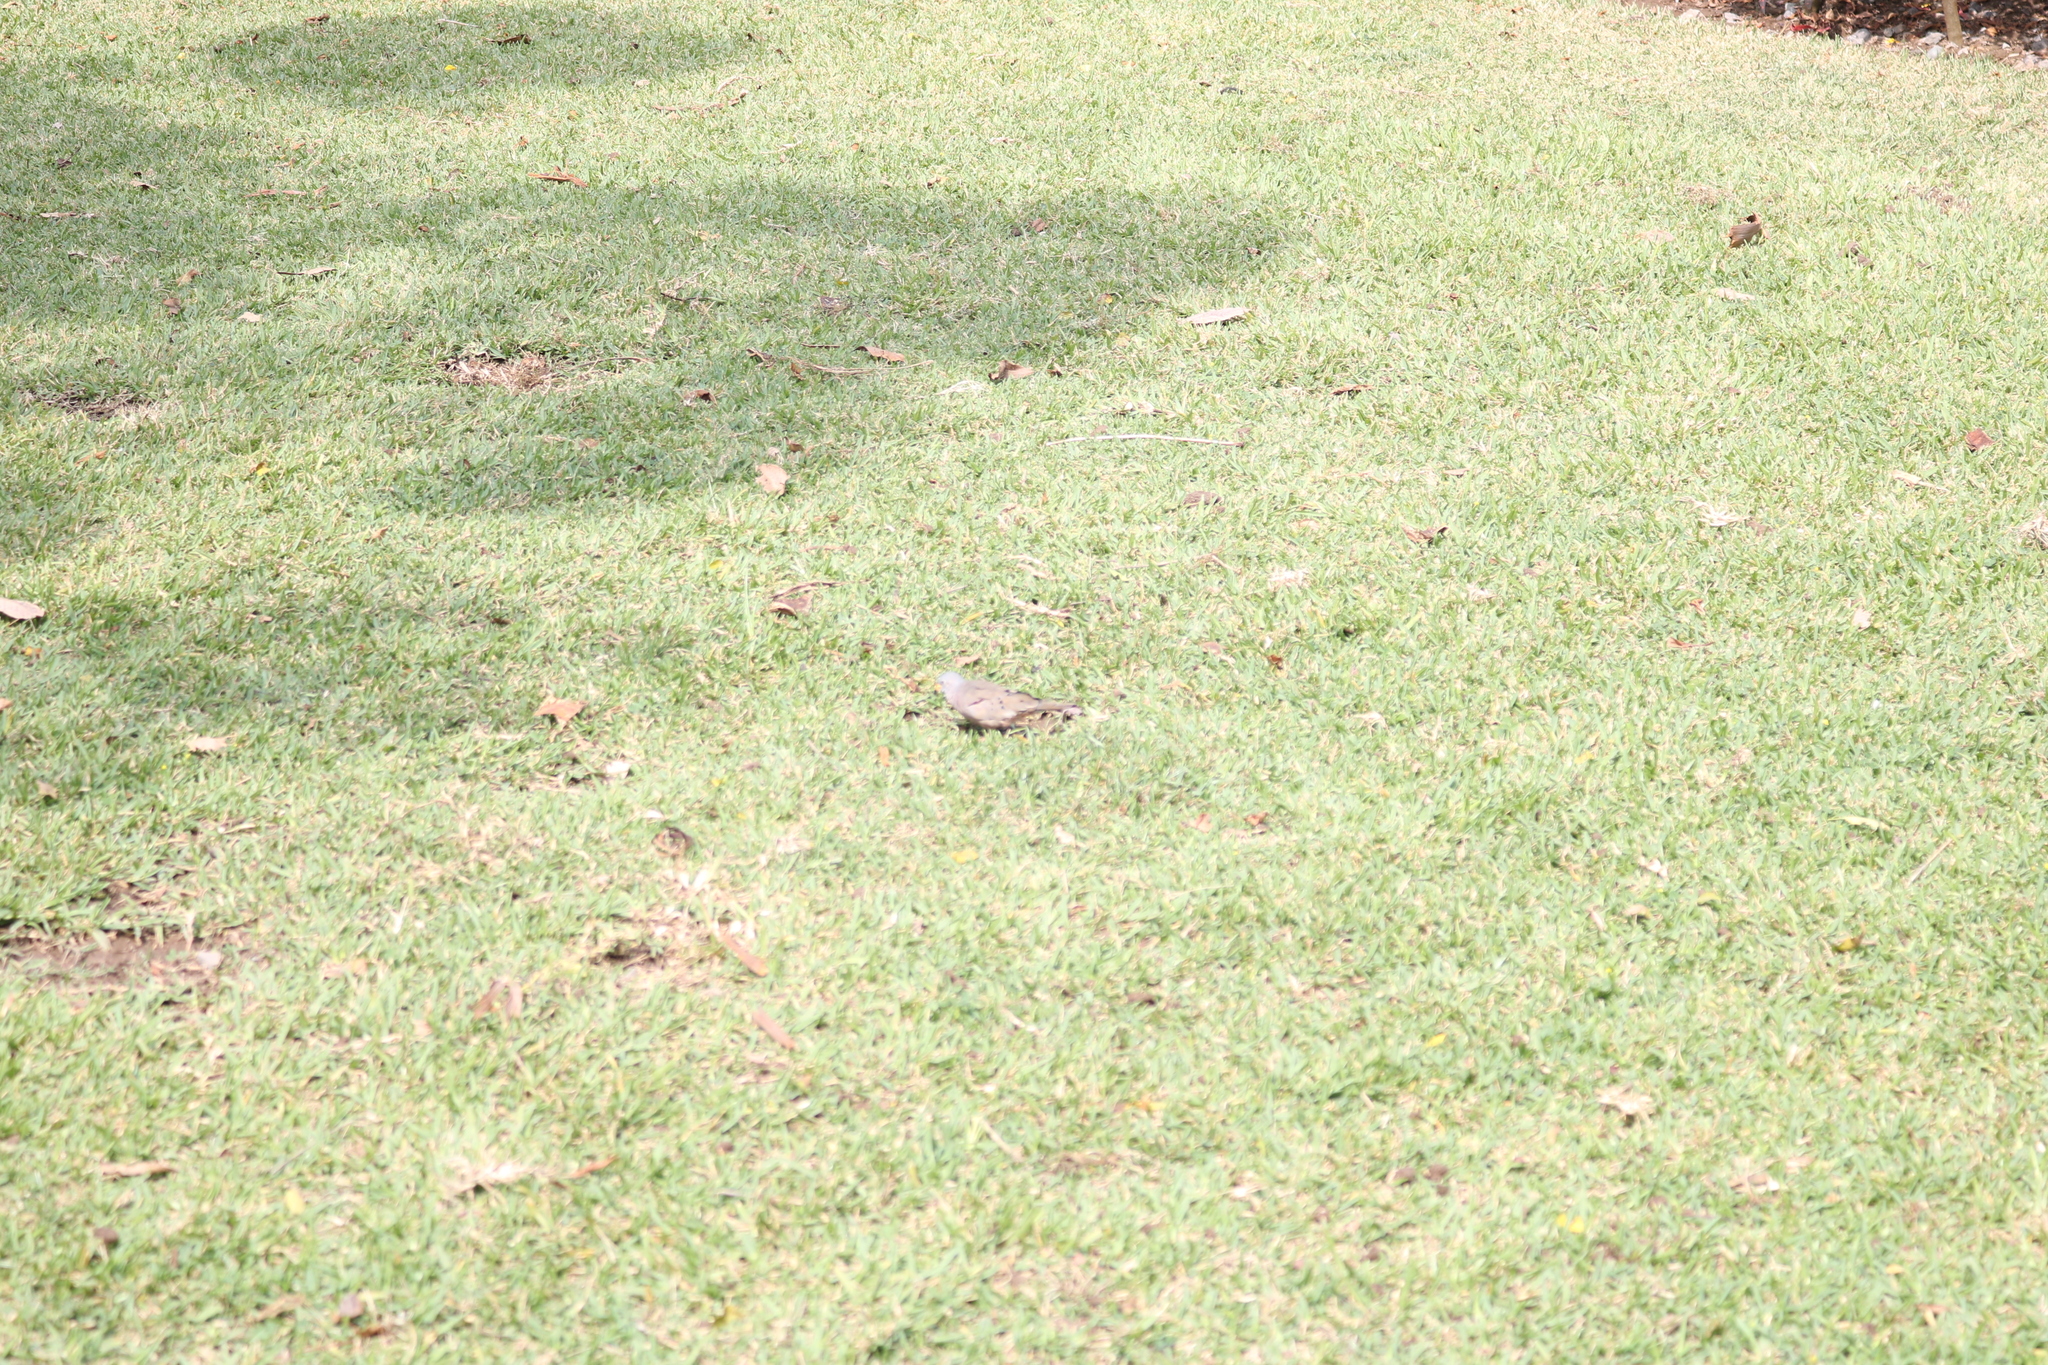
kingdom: Animalia
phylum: Chordata
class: Aves
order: Columbiformes
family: Columbidae
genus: Columbina
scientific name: Columbina cruziana
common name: Croaking ground dove
